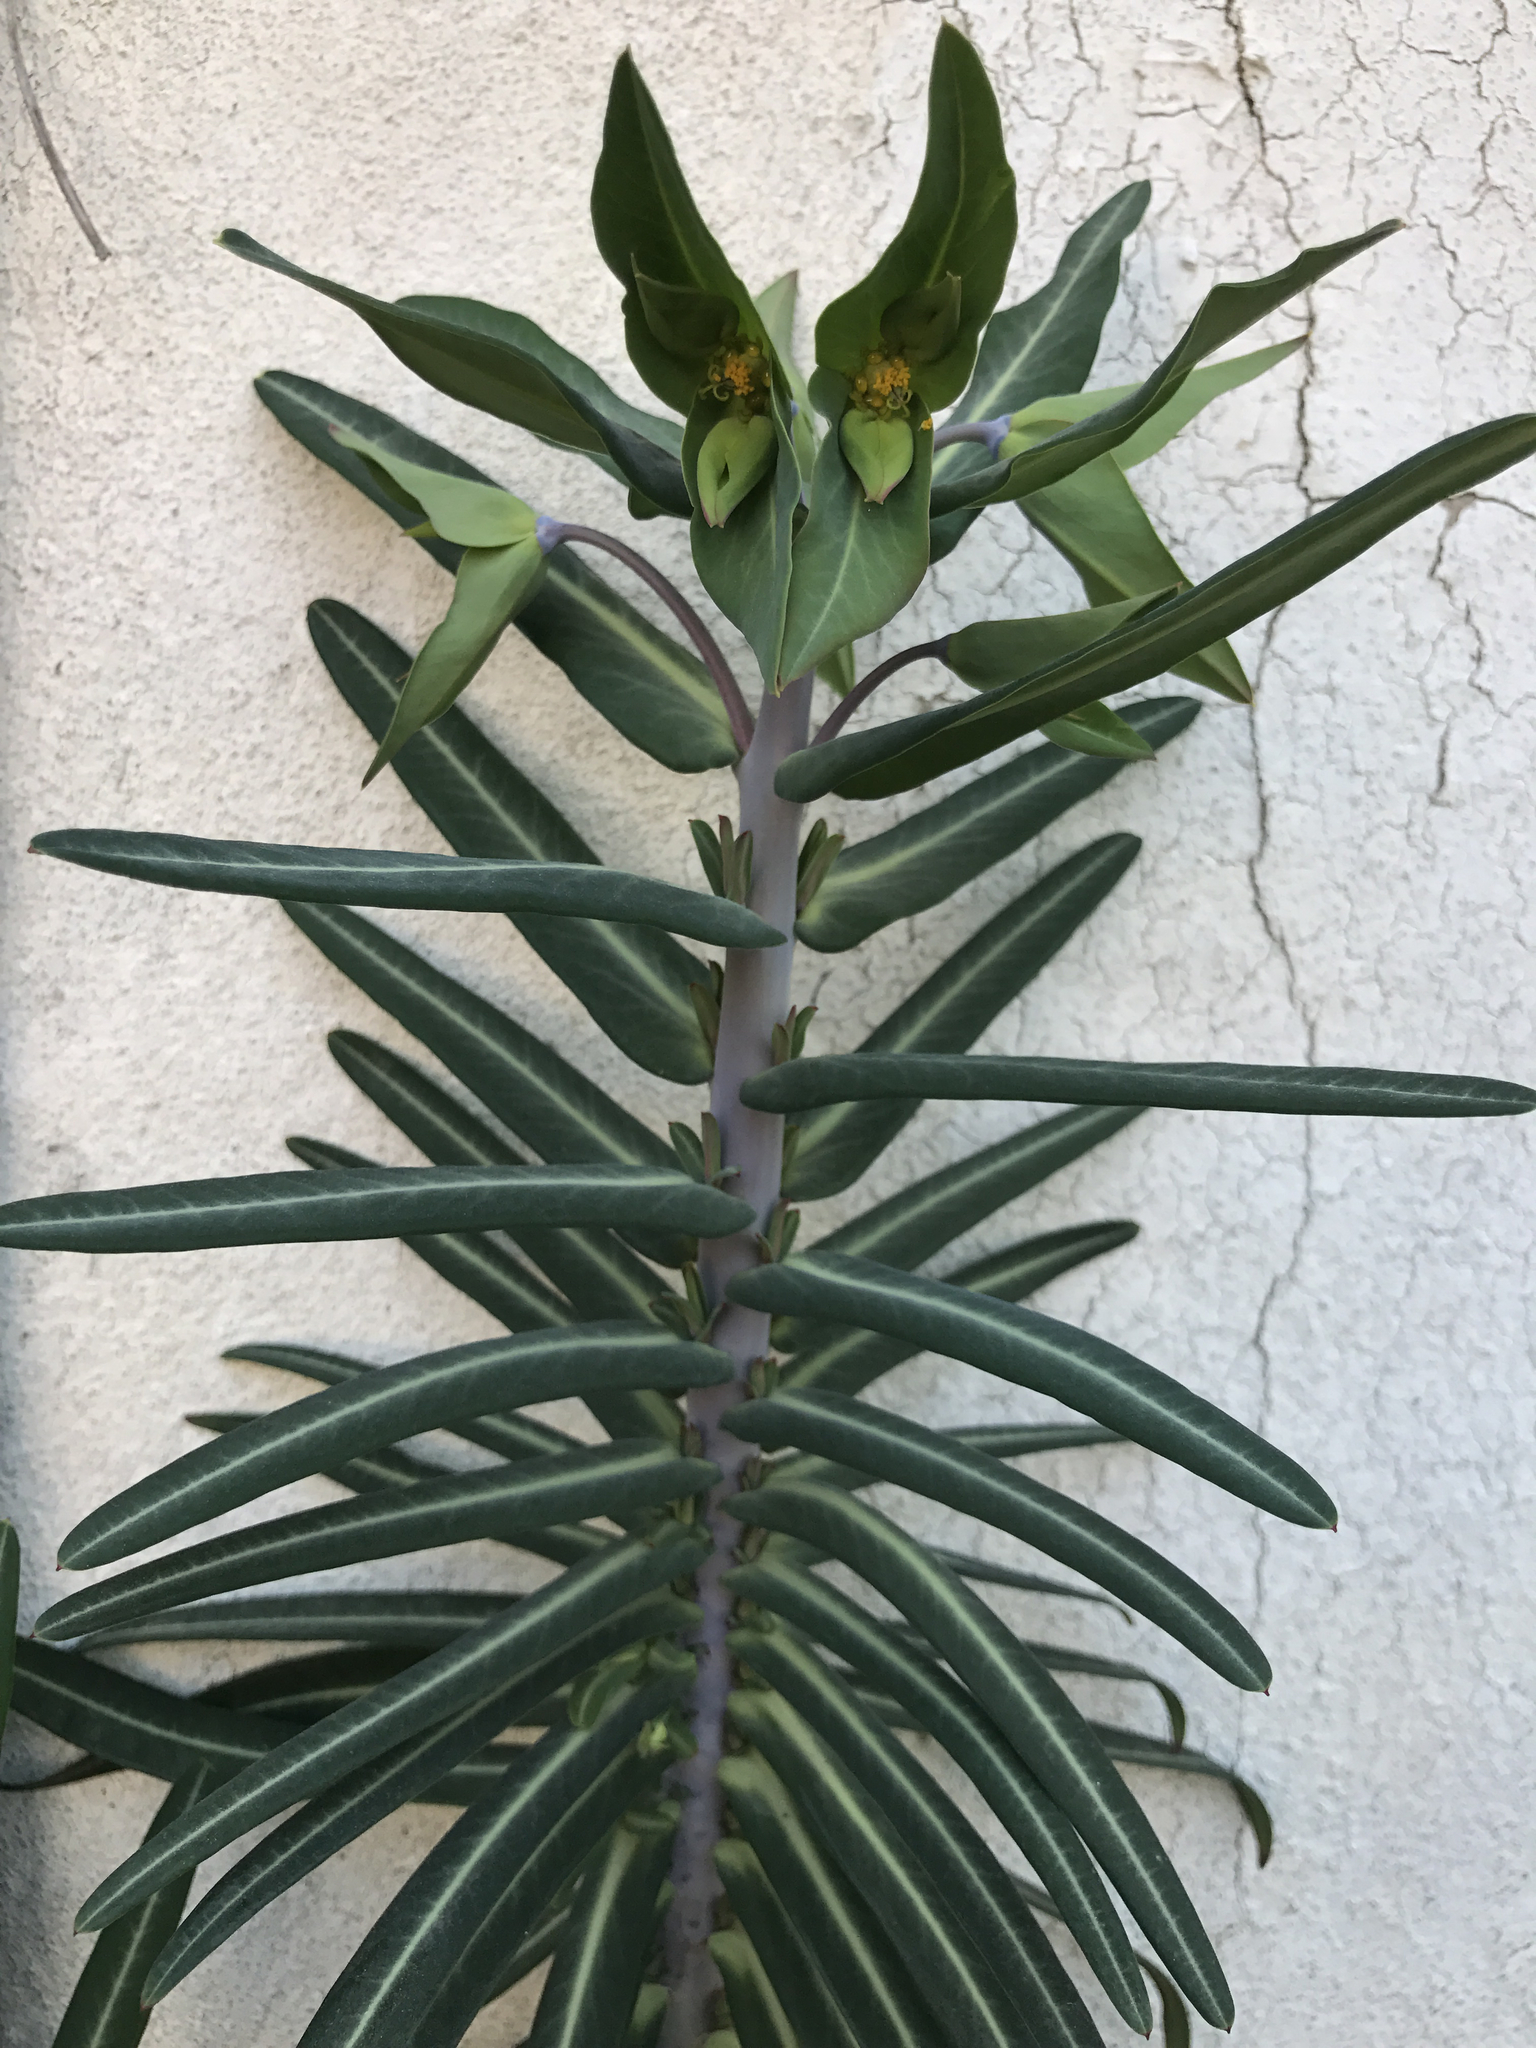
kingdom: Plantae
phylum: Tracheophyta
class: Magnoliopsida
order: Malpighiales
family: Euphorbiaceae
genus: Euphorbia
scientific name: Euphorbia lathyris
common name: Caper spurge
